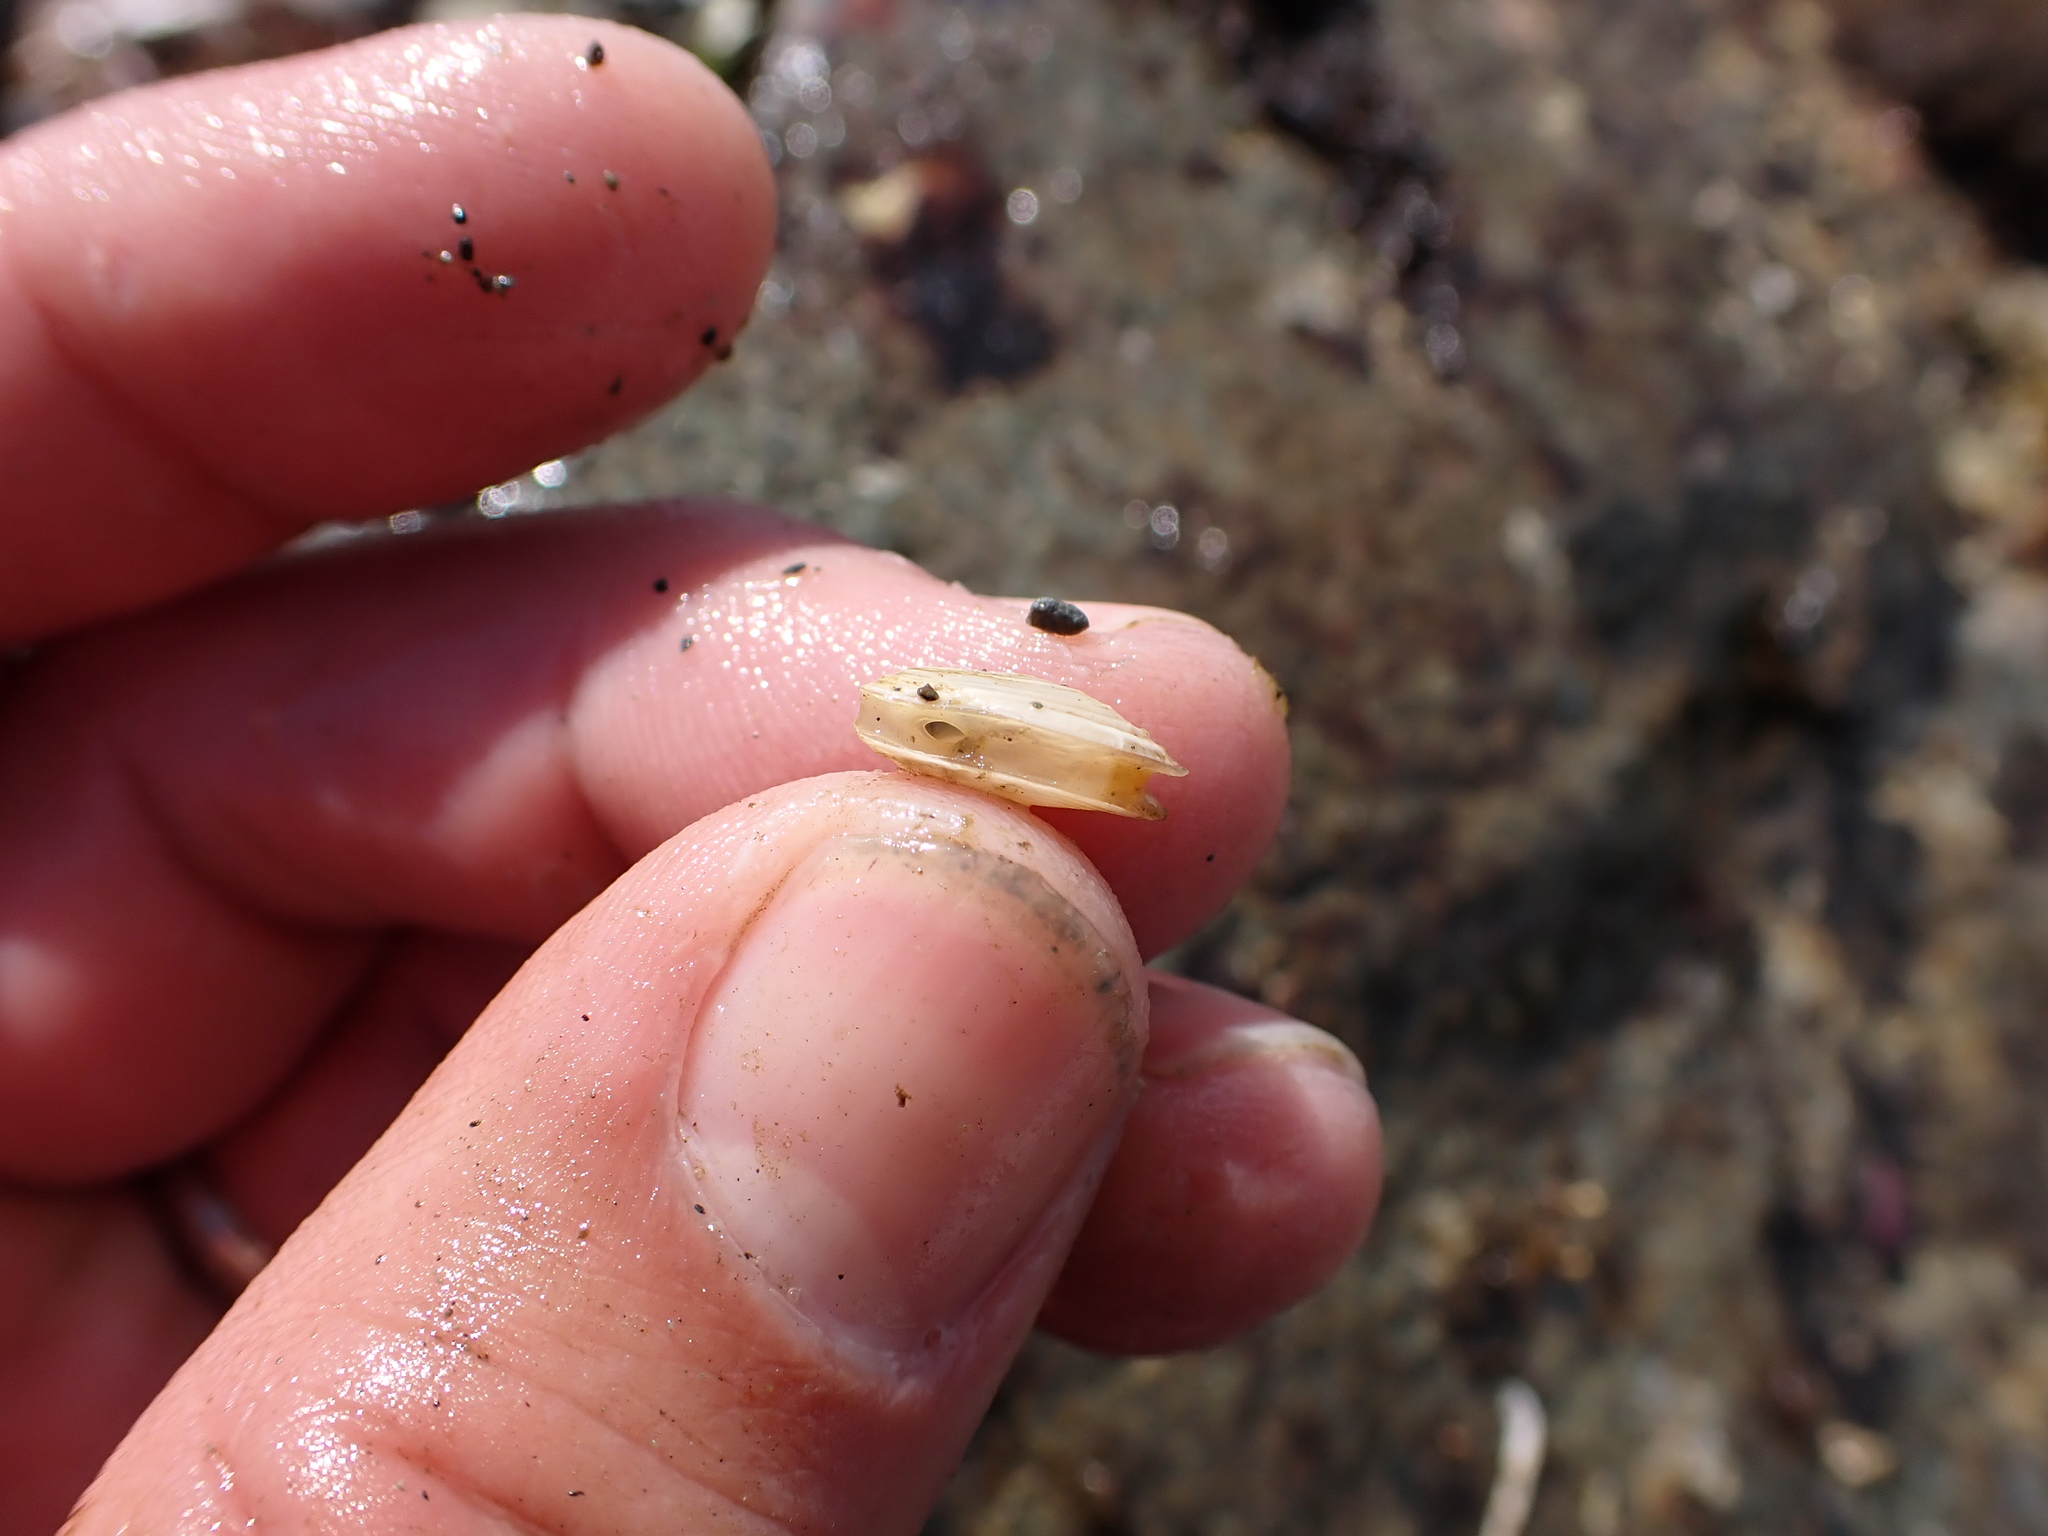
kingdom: Animalia
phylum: Mollusca
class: Bivalvia
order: Adapedonta
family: Hiatellidae
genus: Hiatella
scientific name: Hiatella arctica
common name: Arctic hiatella
